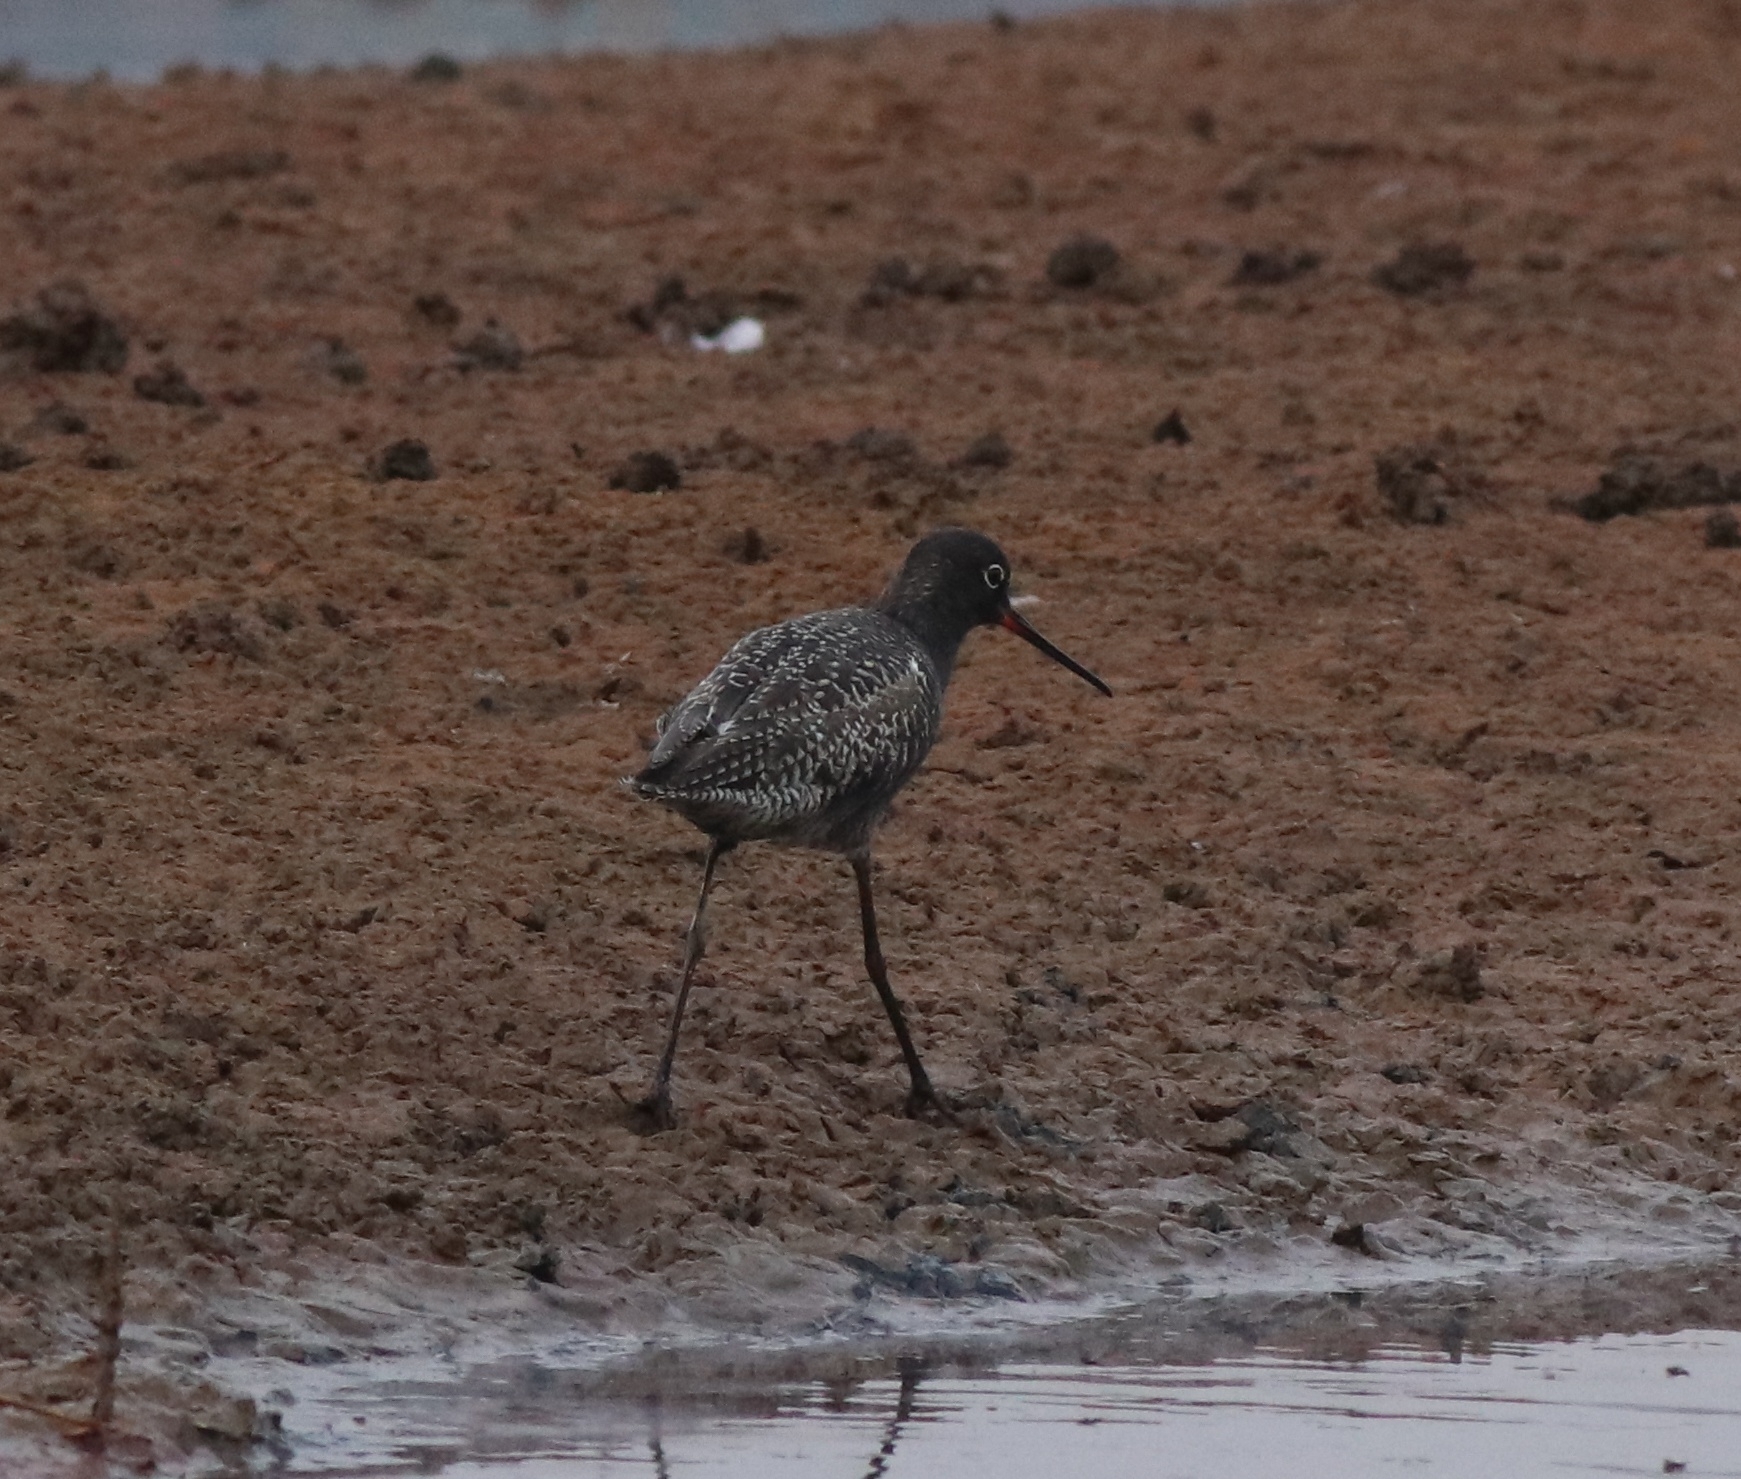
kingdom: Animalia
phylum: Chordata
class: Aves
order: Charadriiformes
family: Scolopacidae
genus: Tringa
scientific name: Tringa erythropus
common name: Spotted redshank
